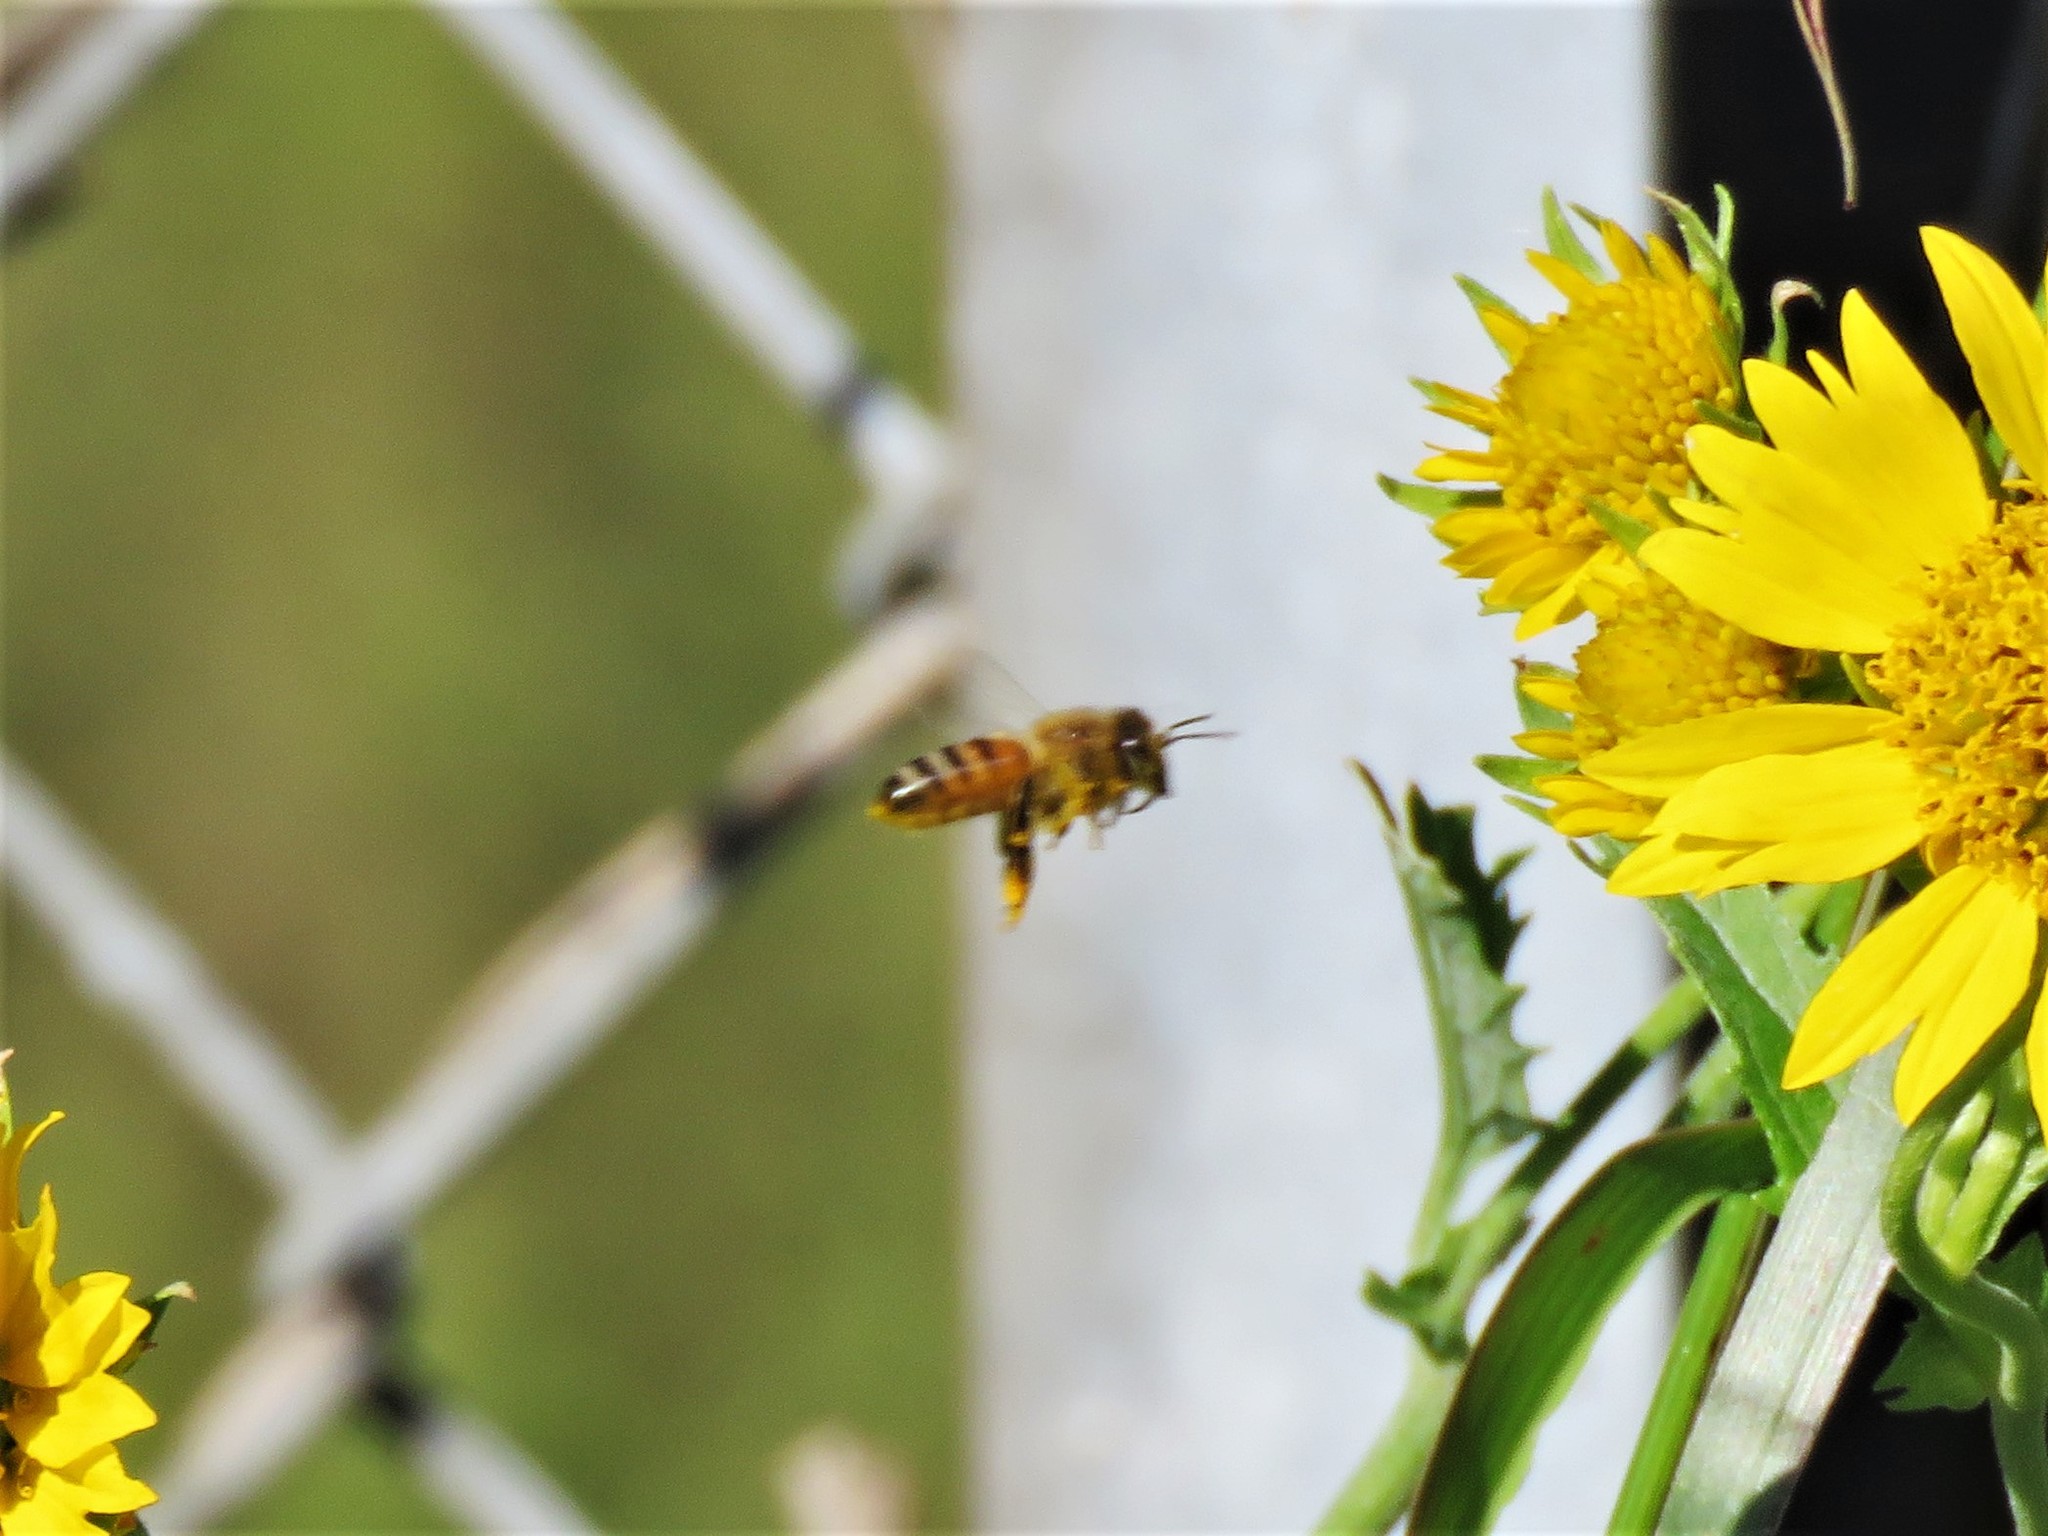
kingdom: Animalia
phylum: Arthropoda
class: Insecta
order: Hymenoptera
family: Apidae
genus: Apis
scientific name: Apis mellifera
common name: Honey bee
